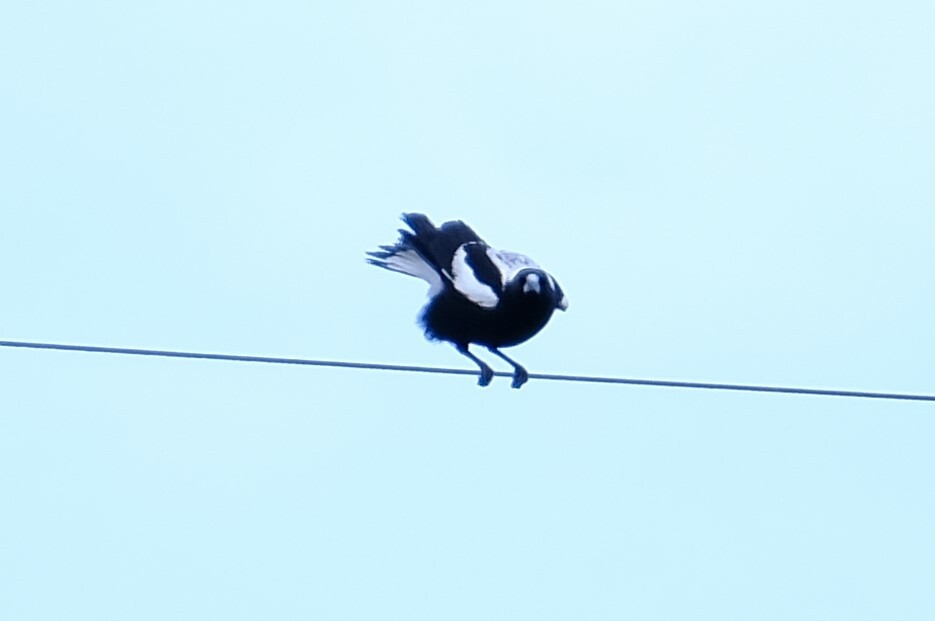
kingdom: Animalia
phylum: Chordata
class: Aves
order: Passeriformes
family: Cracticidae
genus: Gymnorhina
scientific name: Gymnorhina tibicen
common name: Australian magpie
